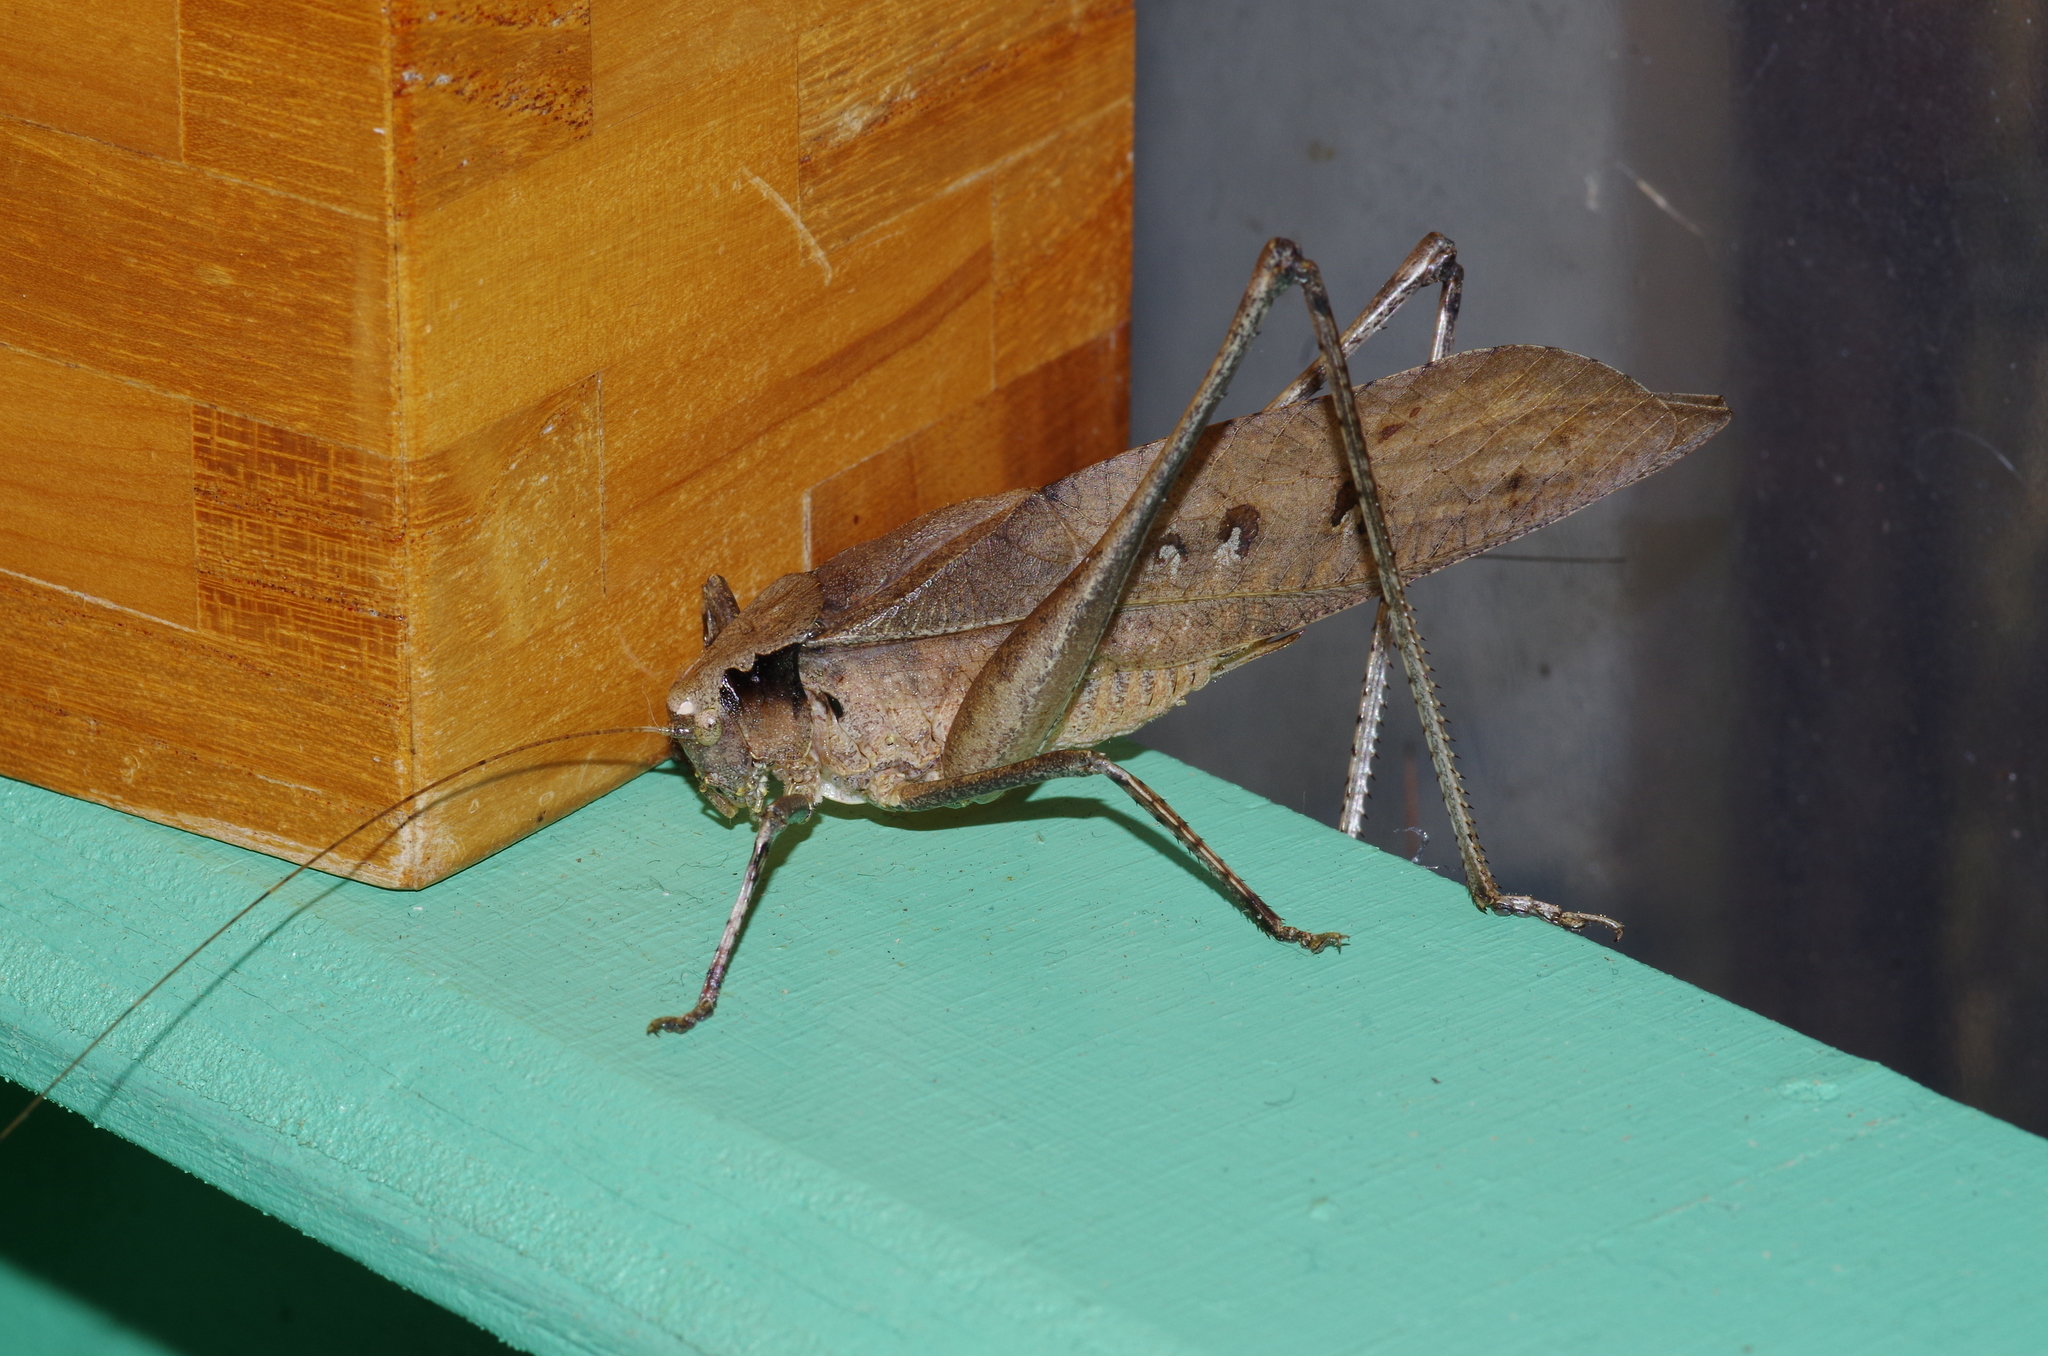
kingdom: Animalia
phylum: Arthropoda
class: Insecta
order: Orthoptera
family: Tettigoniidae
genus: Mecopoda
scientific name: Mecopoda elongata
